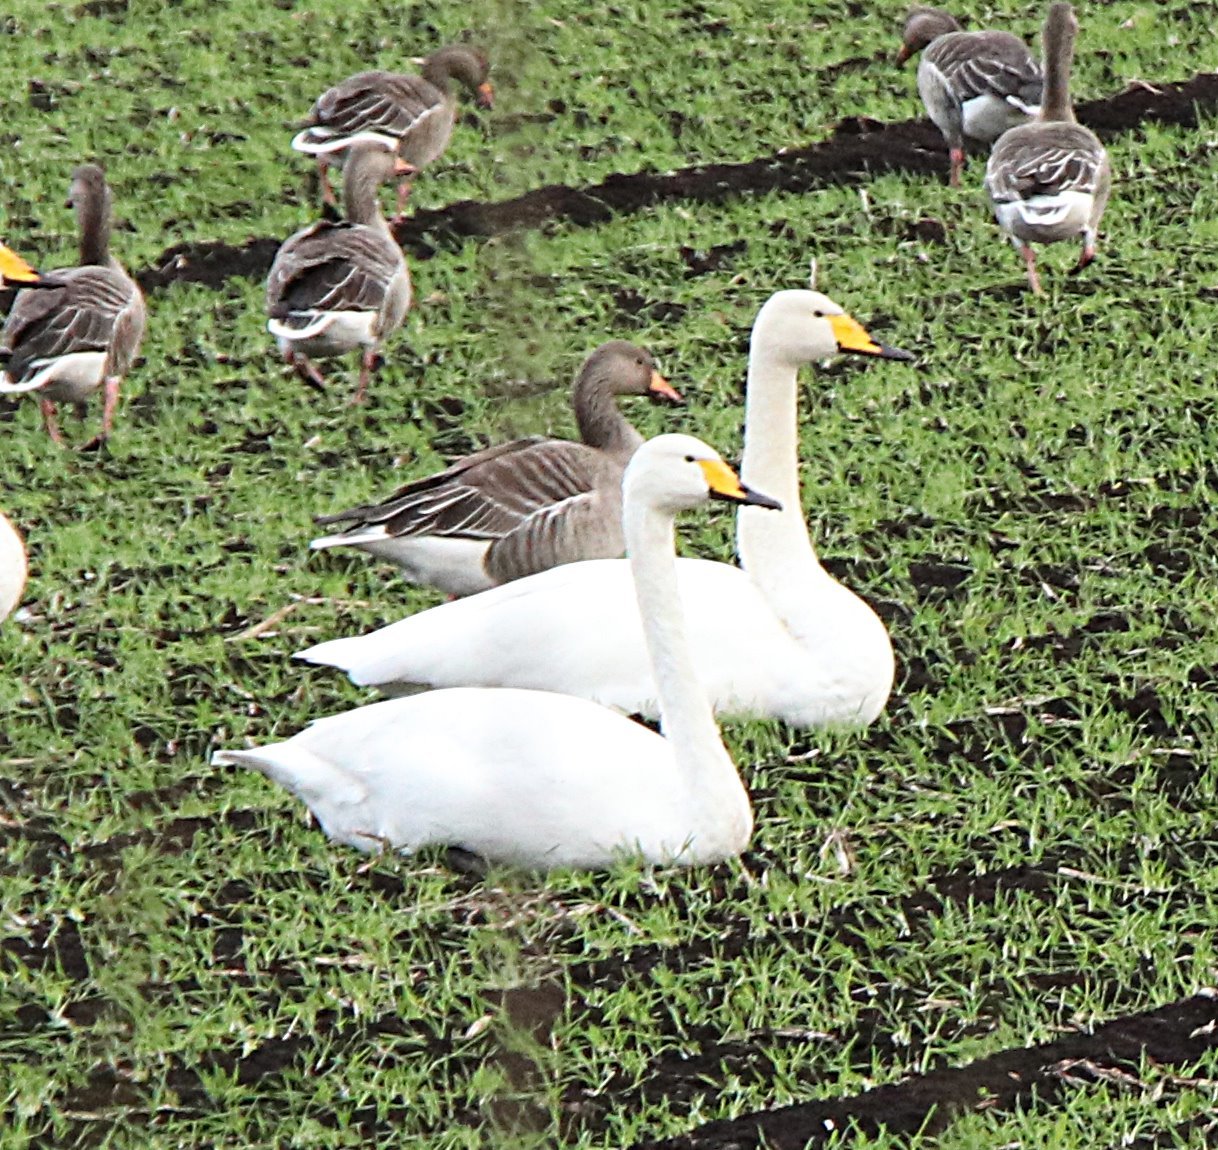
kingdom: Animalia
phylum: Chordata
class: Aves
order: Anseriformes
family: Anatidae
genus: Cygnus
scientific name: Cygnus cygnus
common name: Whooper swan
